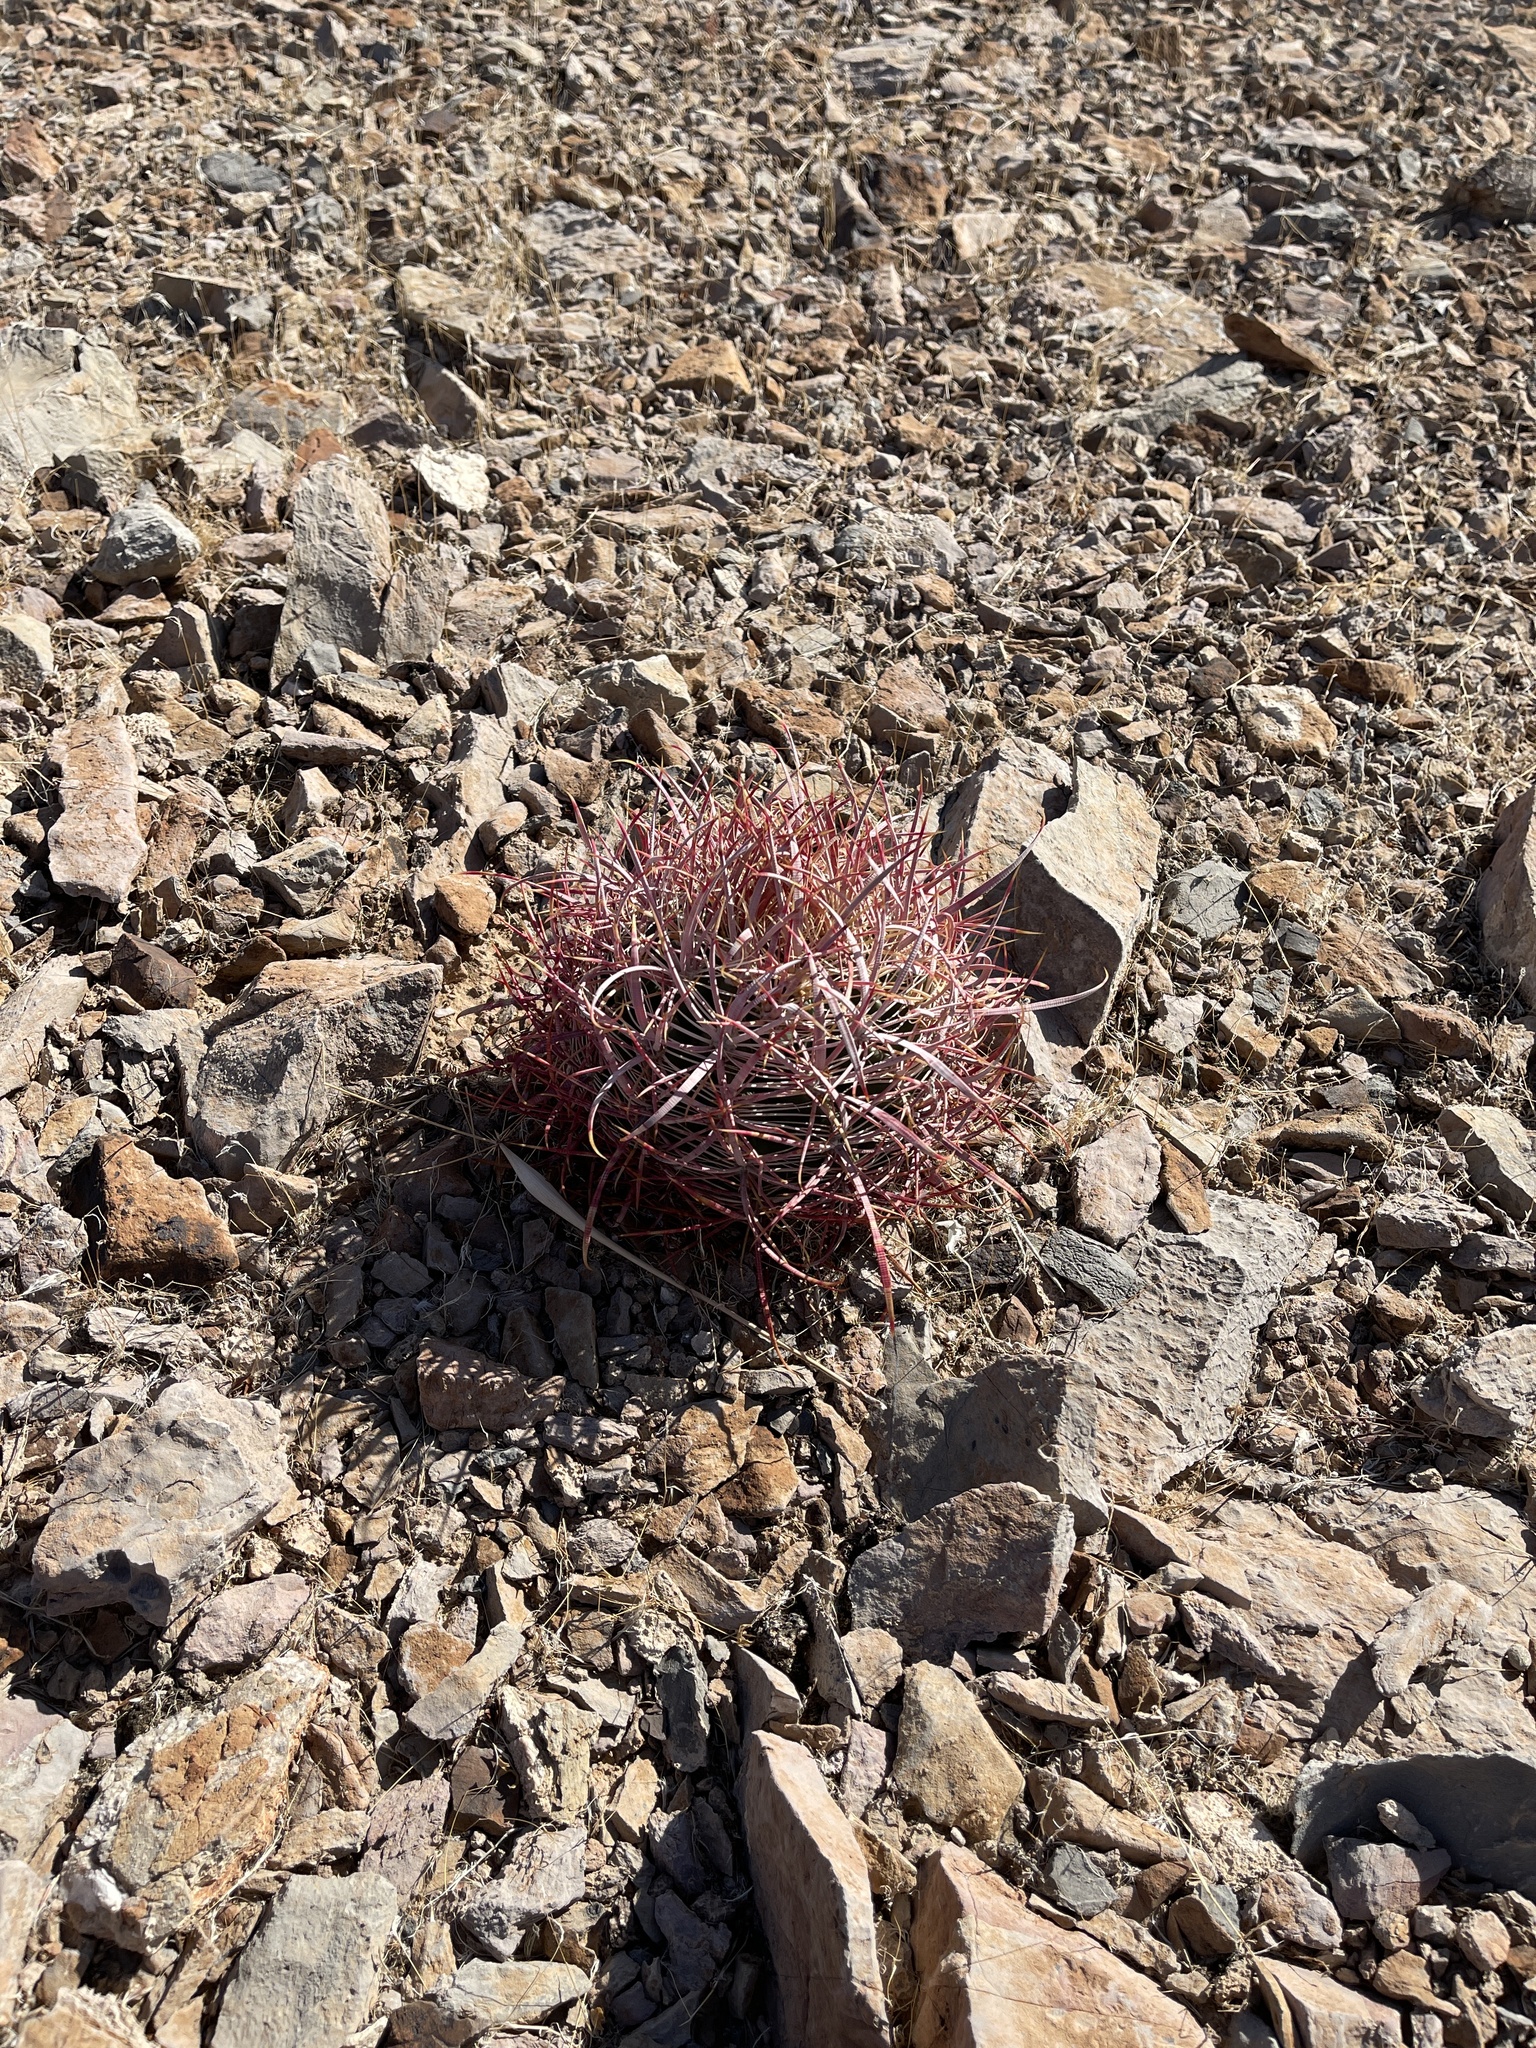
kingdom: Plantae
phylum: Tracheophyta
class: Magnoliopsida
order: Caryophyllales
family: Cactaceae
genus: Ferocactus
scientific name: Ferocactus cylindraceus
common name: California barrel cactus
